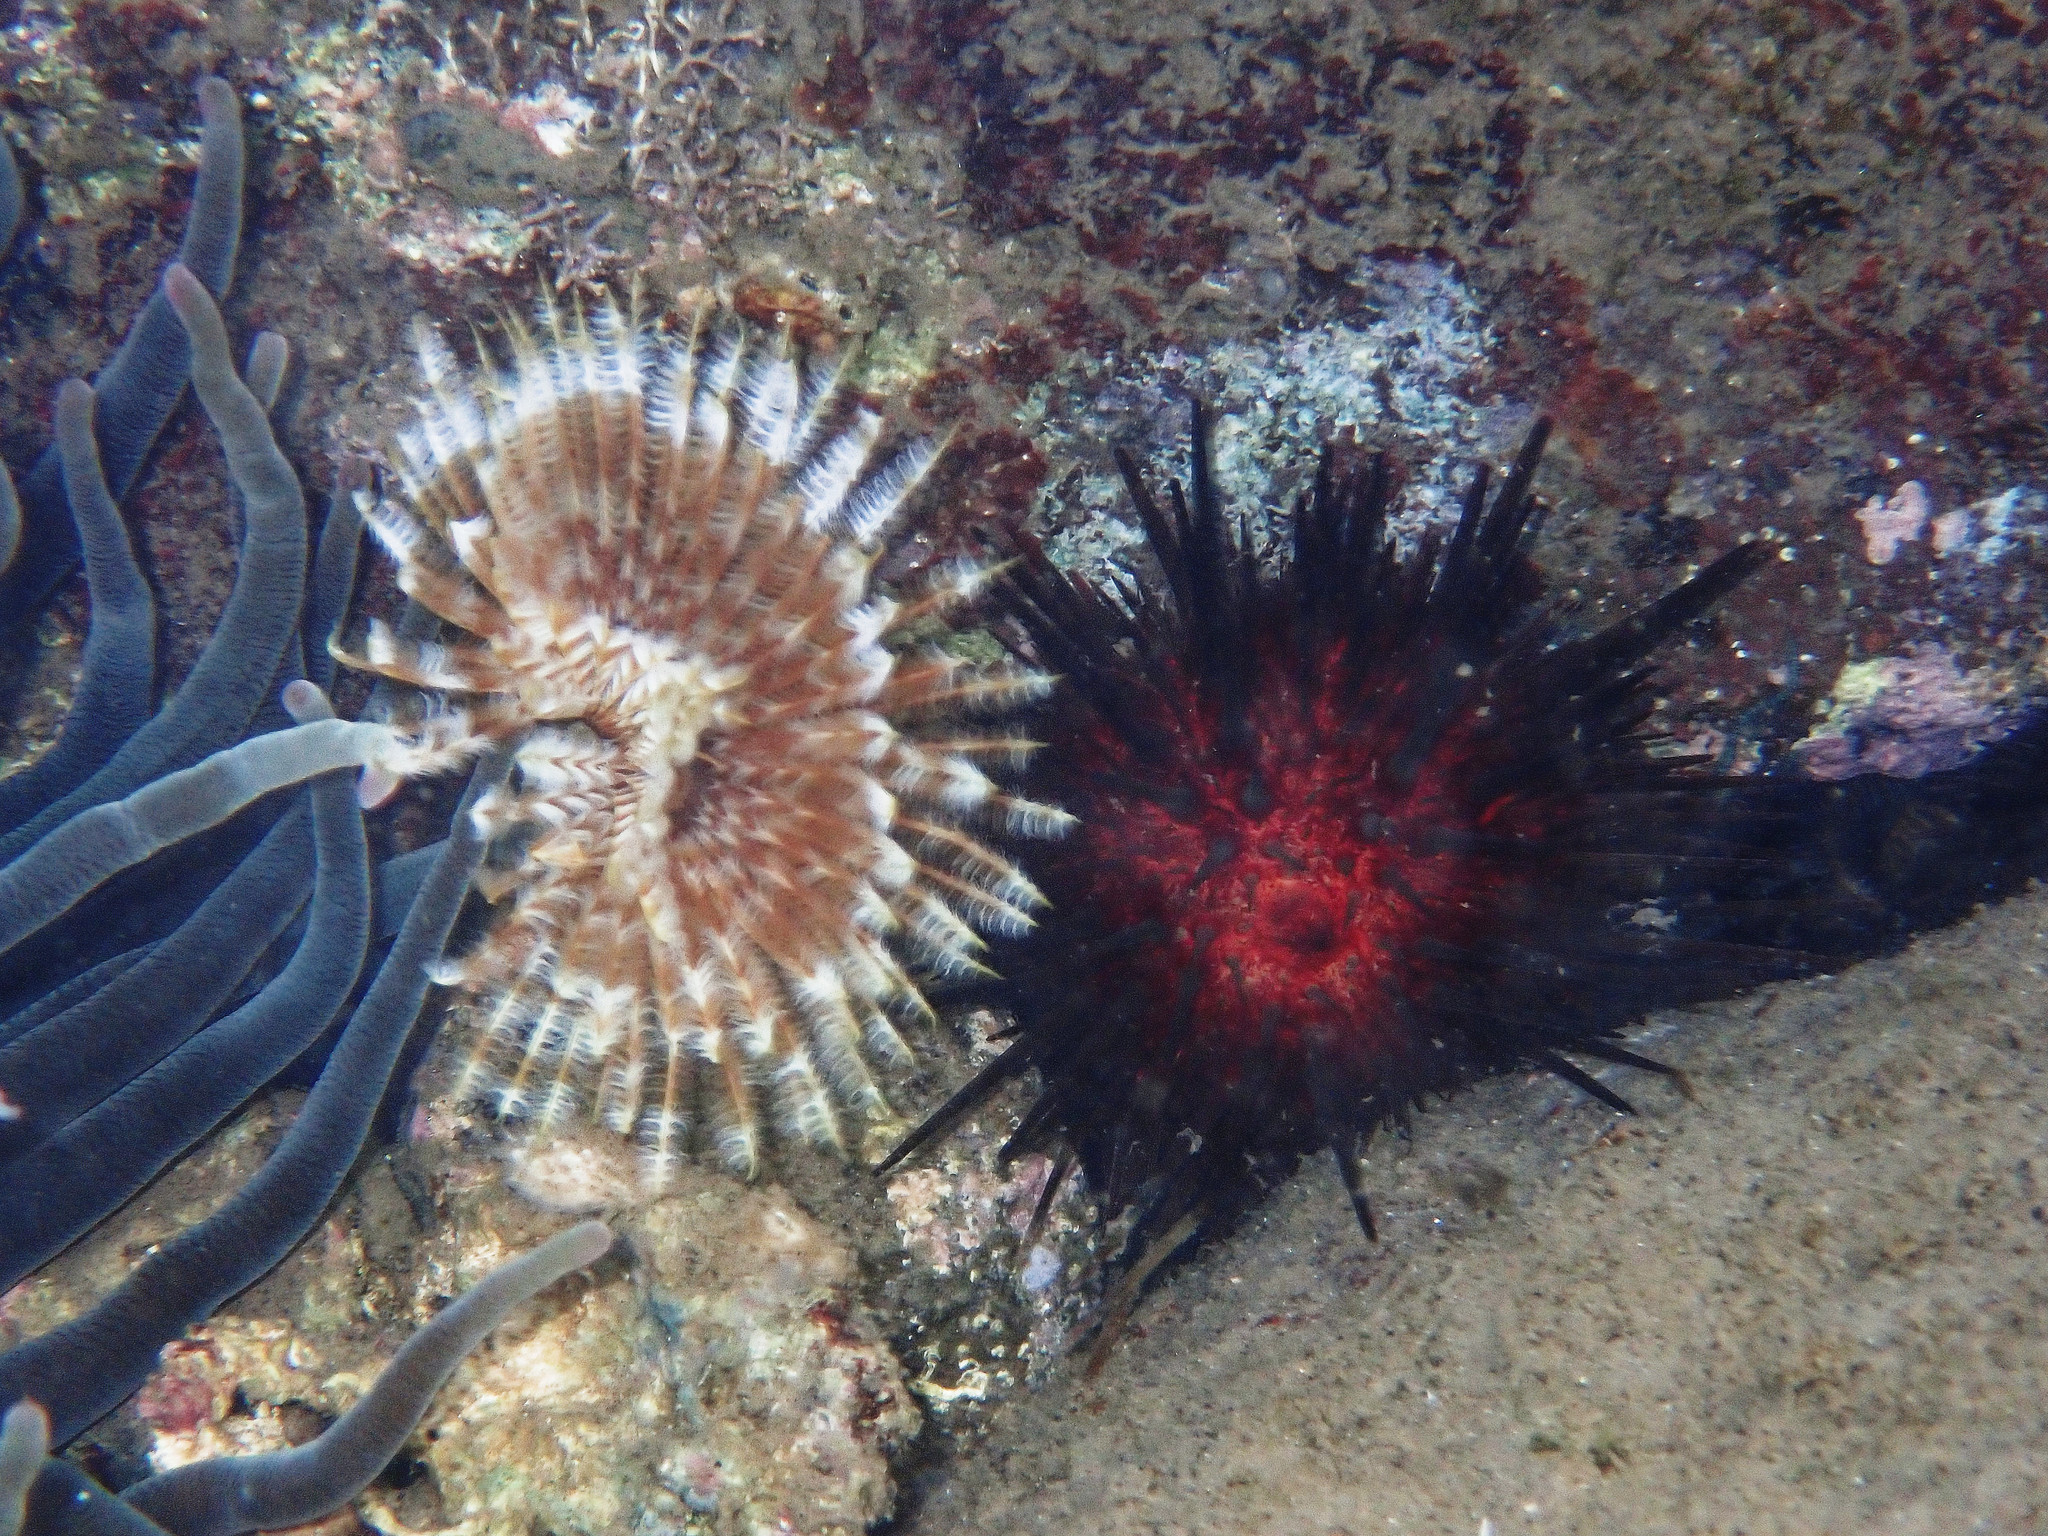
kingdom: Animalia
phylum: Echinodermata
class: Echinoidea
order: Camarodonta
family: Echinometridae
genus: Echinometra
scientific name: Echinometra lucunter
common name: Rock urchin
